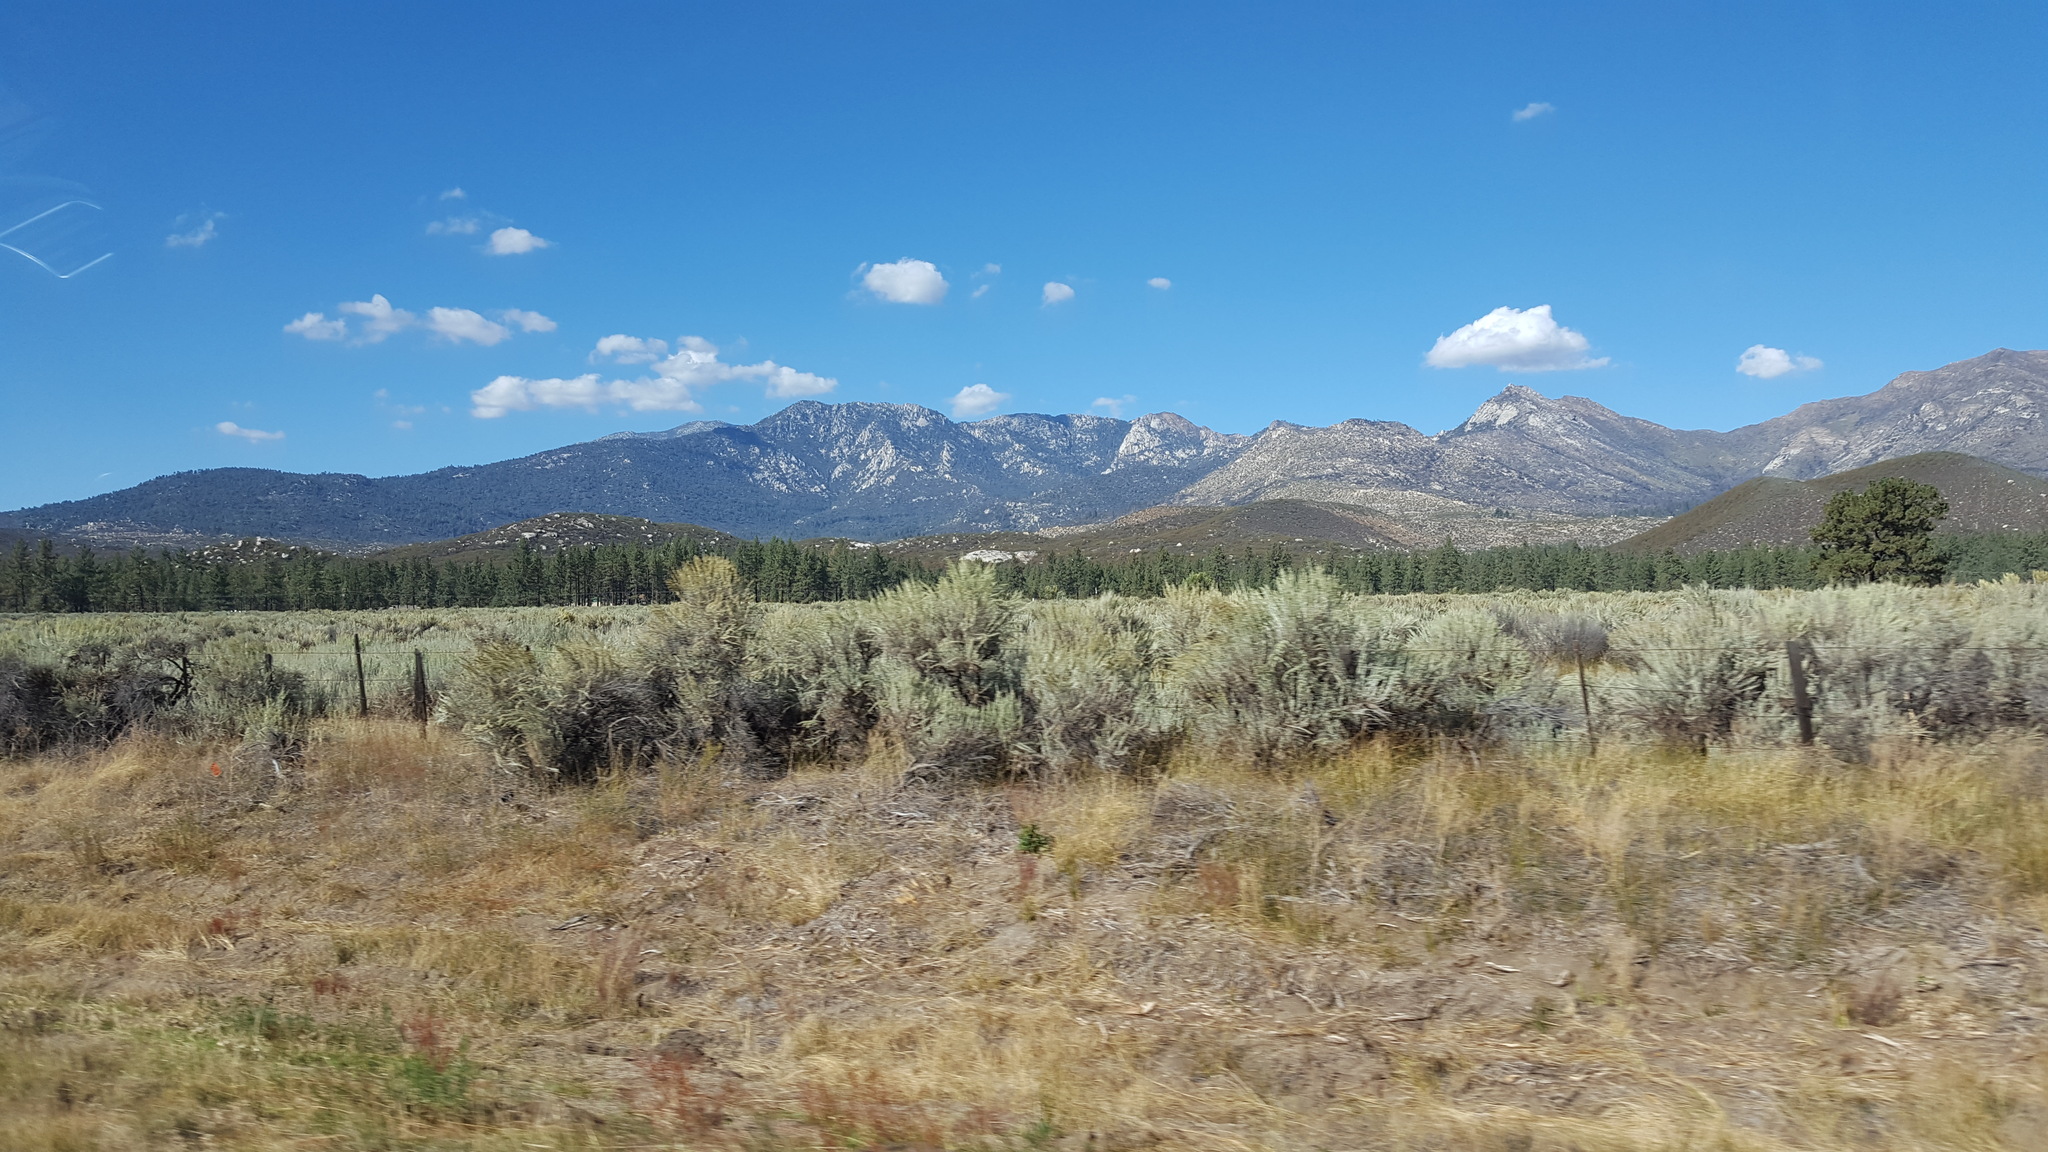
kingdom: Plantae
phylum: Tracheophyta
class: Magnoliopsida
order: Asterales
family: Asteraceae
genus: Artemisia
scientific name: Artemisia tridentata
